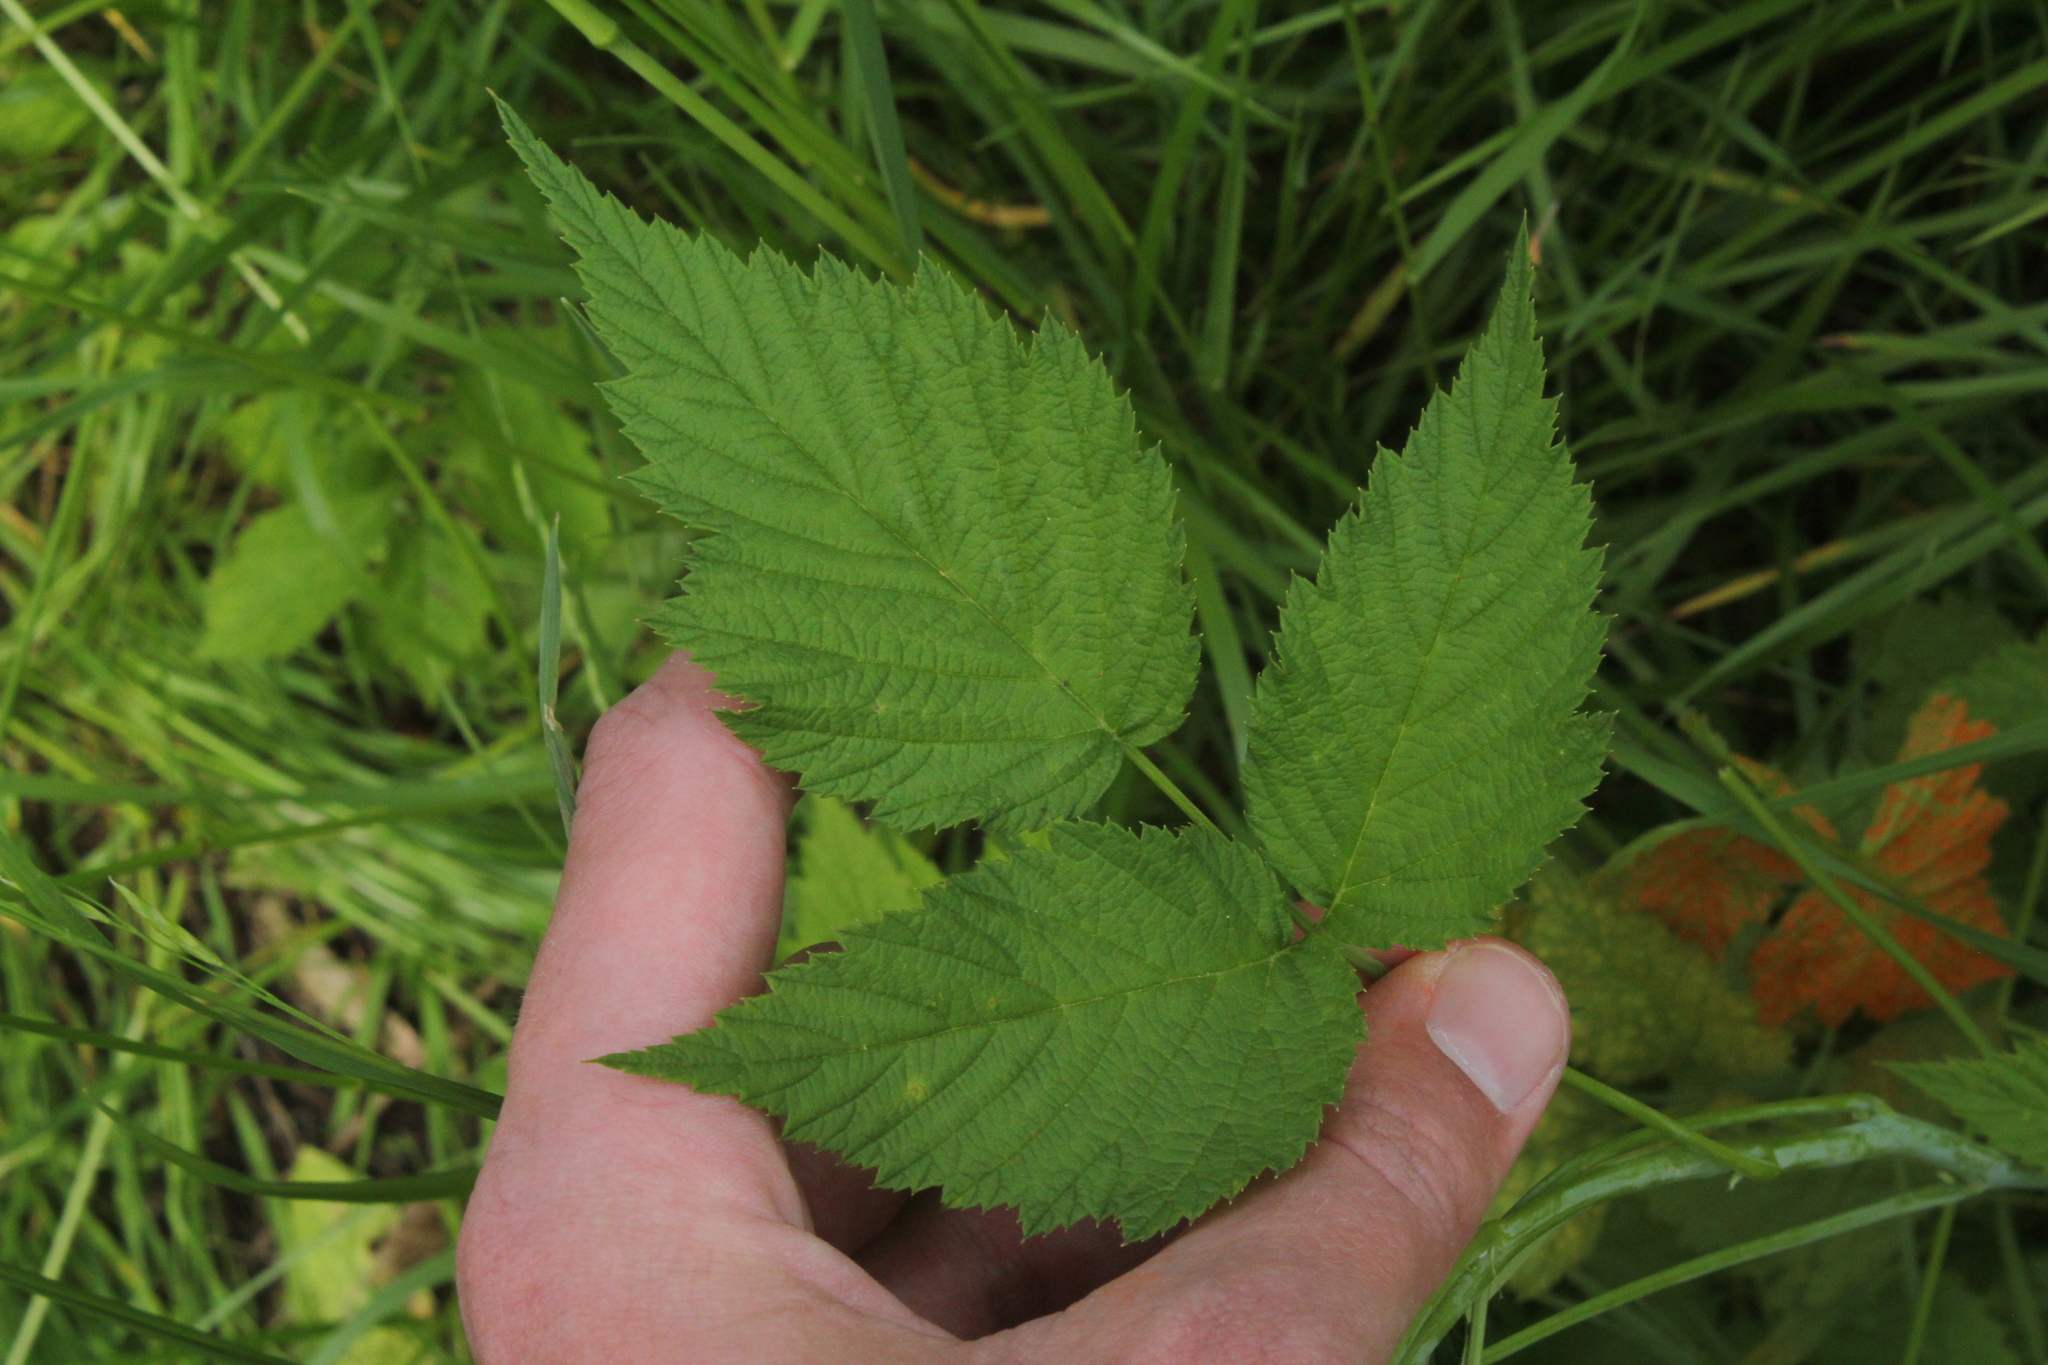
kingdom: Plantae
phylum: Tracheophyta
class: Magnoliopsida
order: Rosales
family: Rosaceae
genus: Rubus
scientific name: Rubus occidentalis
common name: Black raspberry
